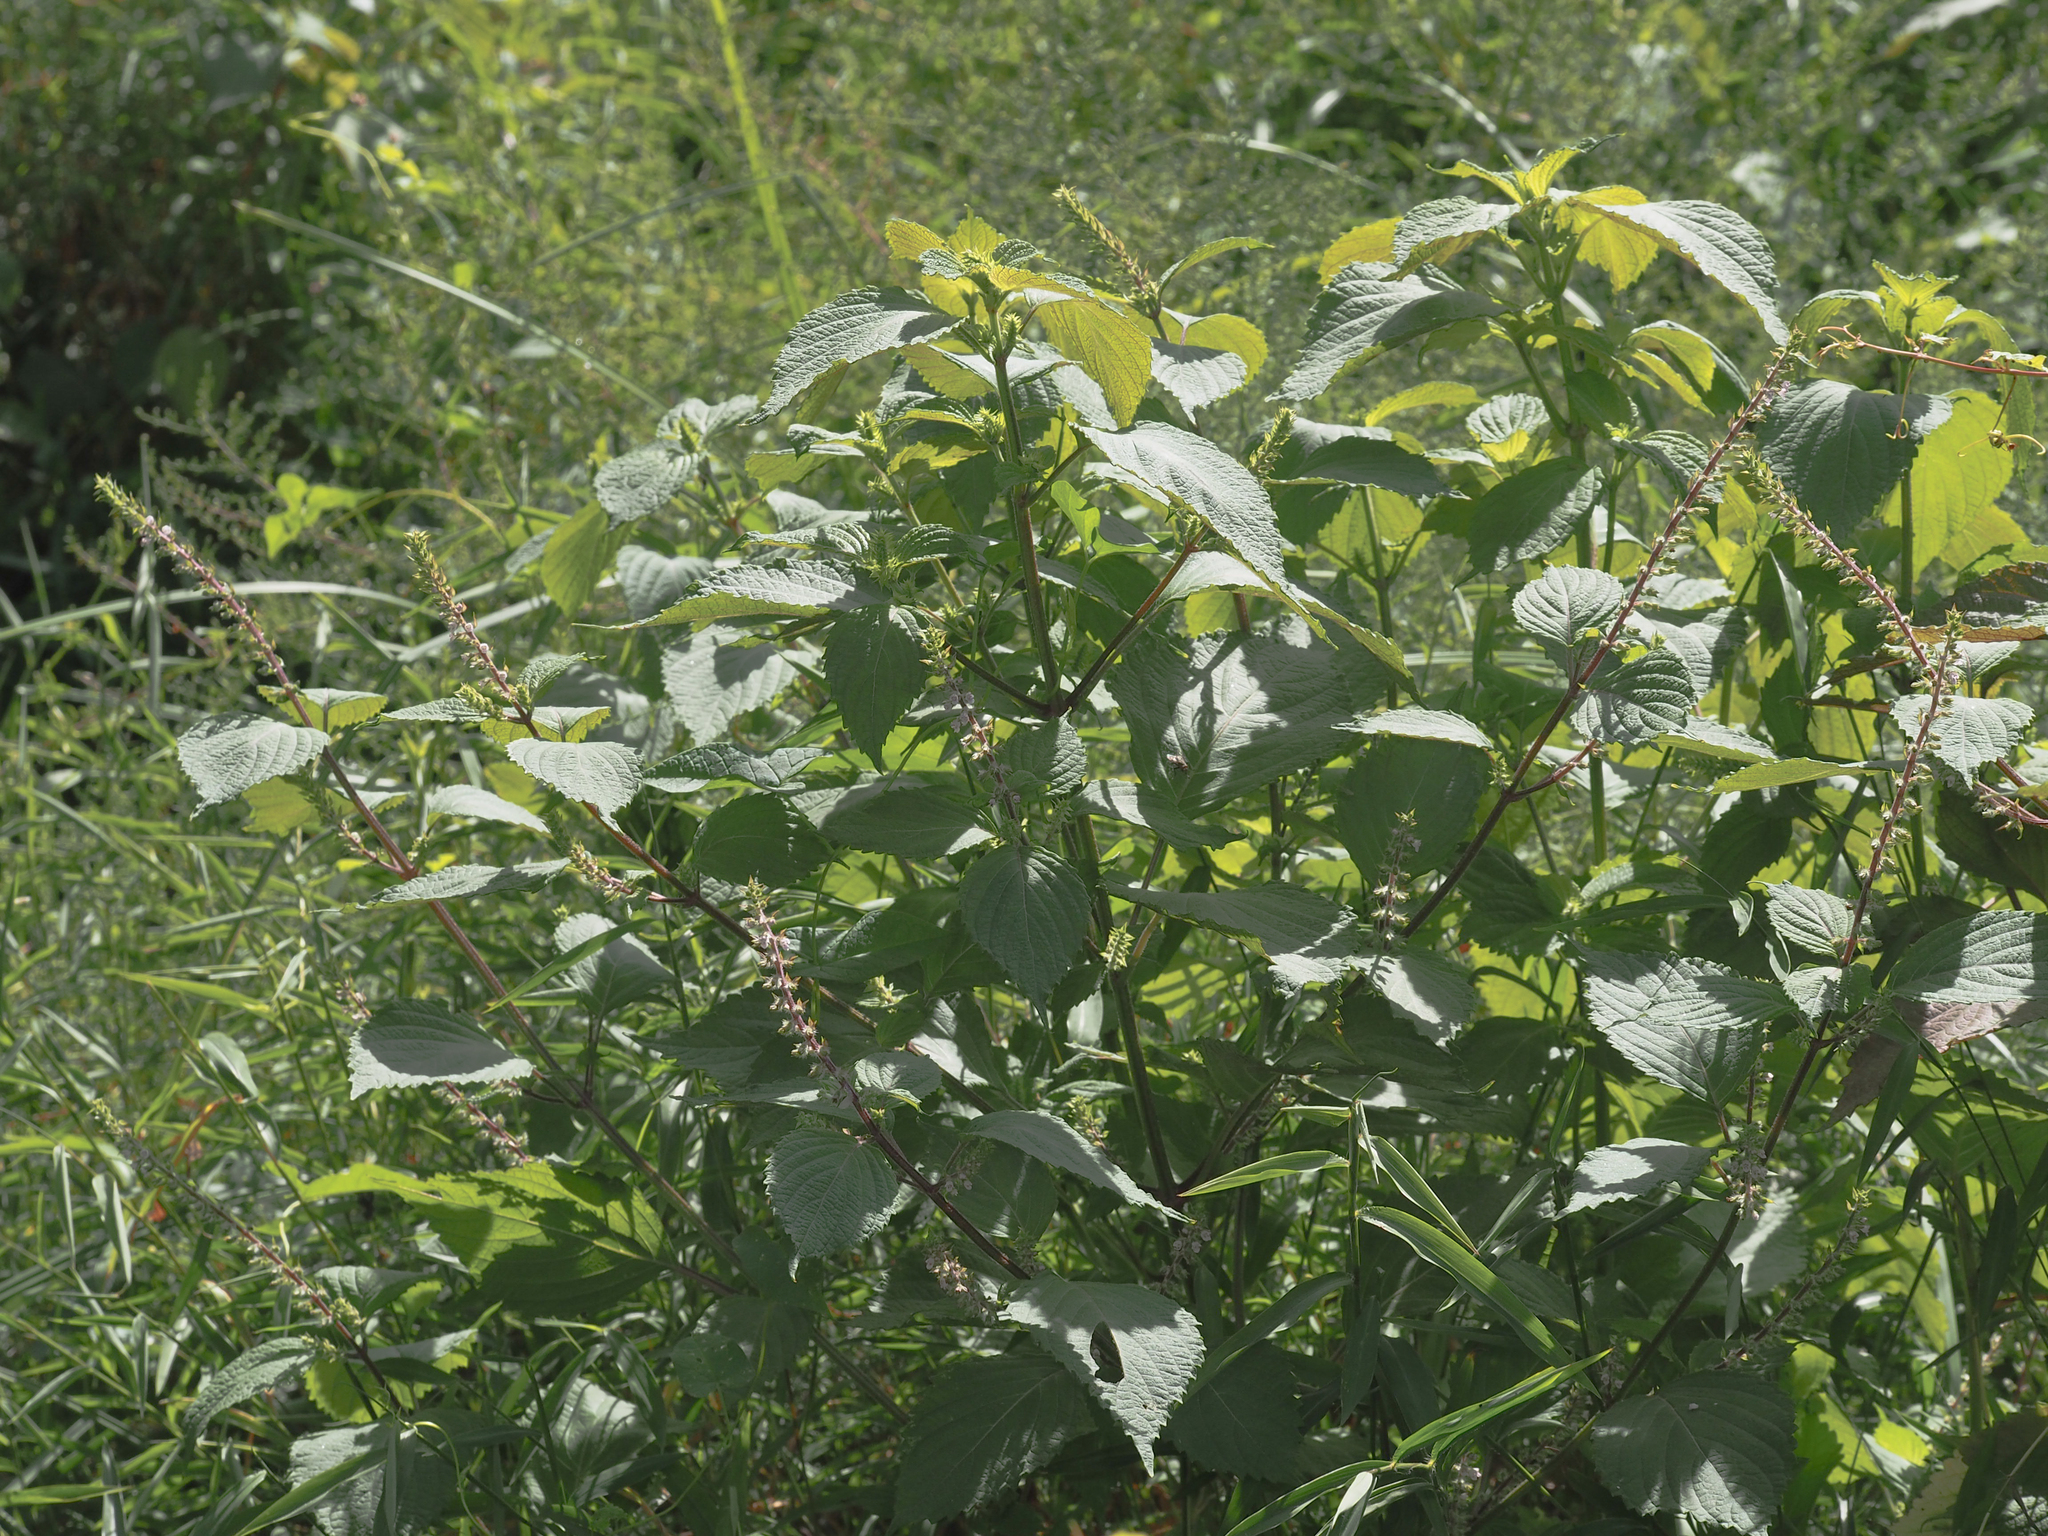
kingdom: Plantae
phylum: Tracheophyta
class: Magnoliopsida
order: Lamiales
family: Lamiaceae
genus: Perilla
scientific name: Perilla frutescens
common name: Perilla
